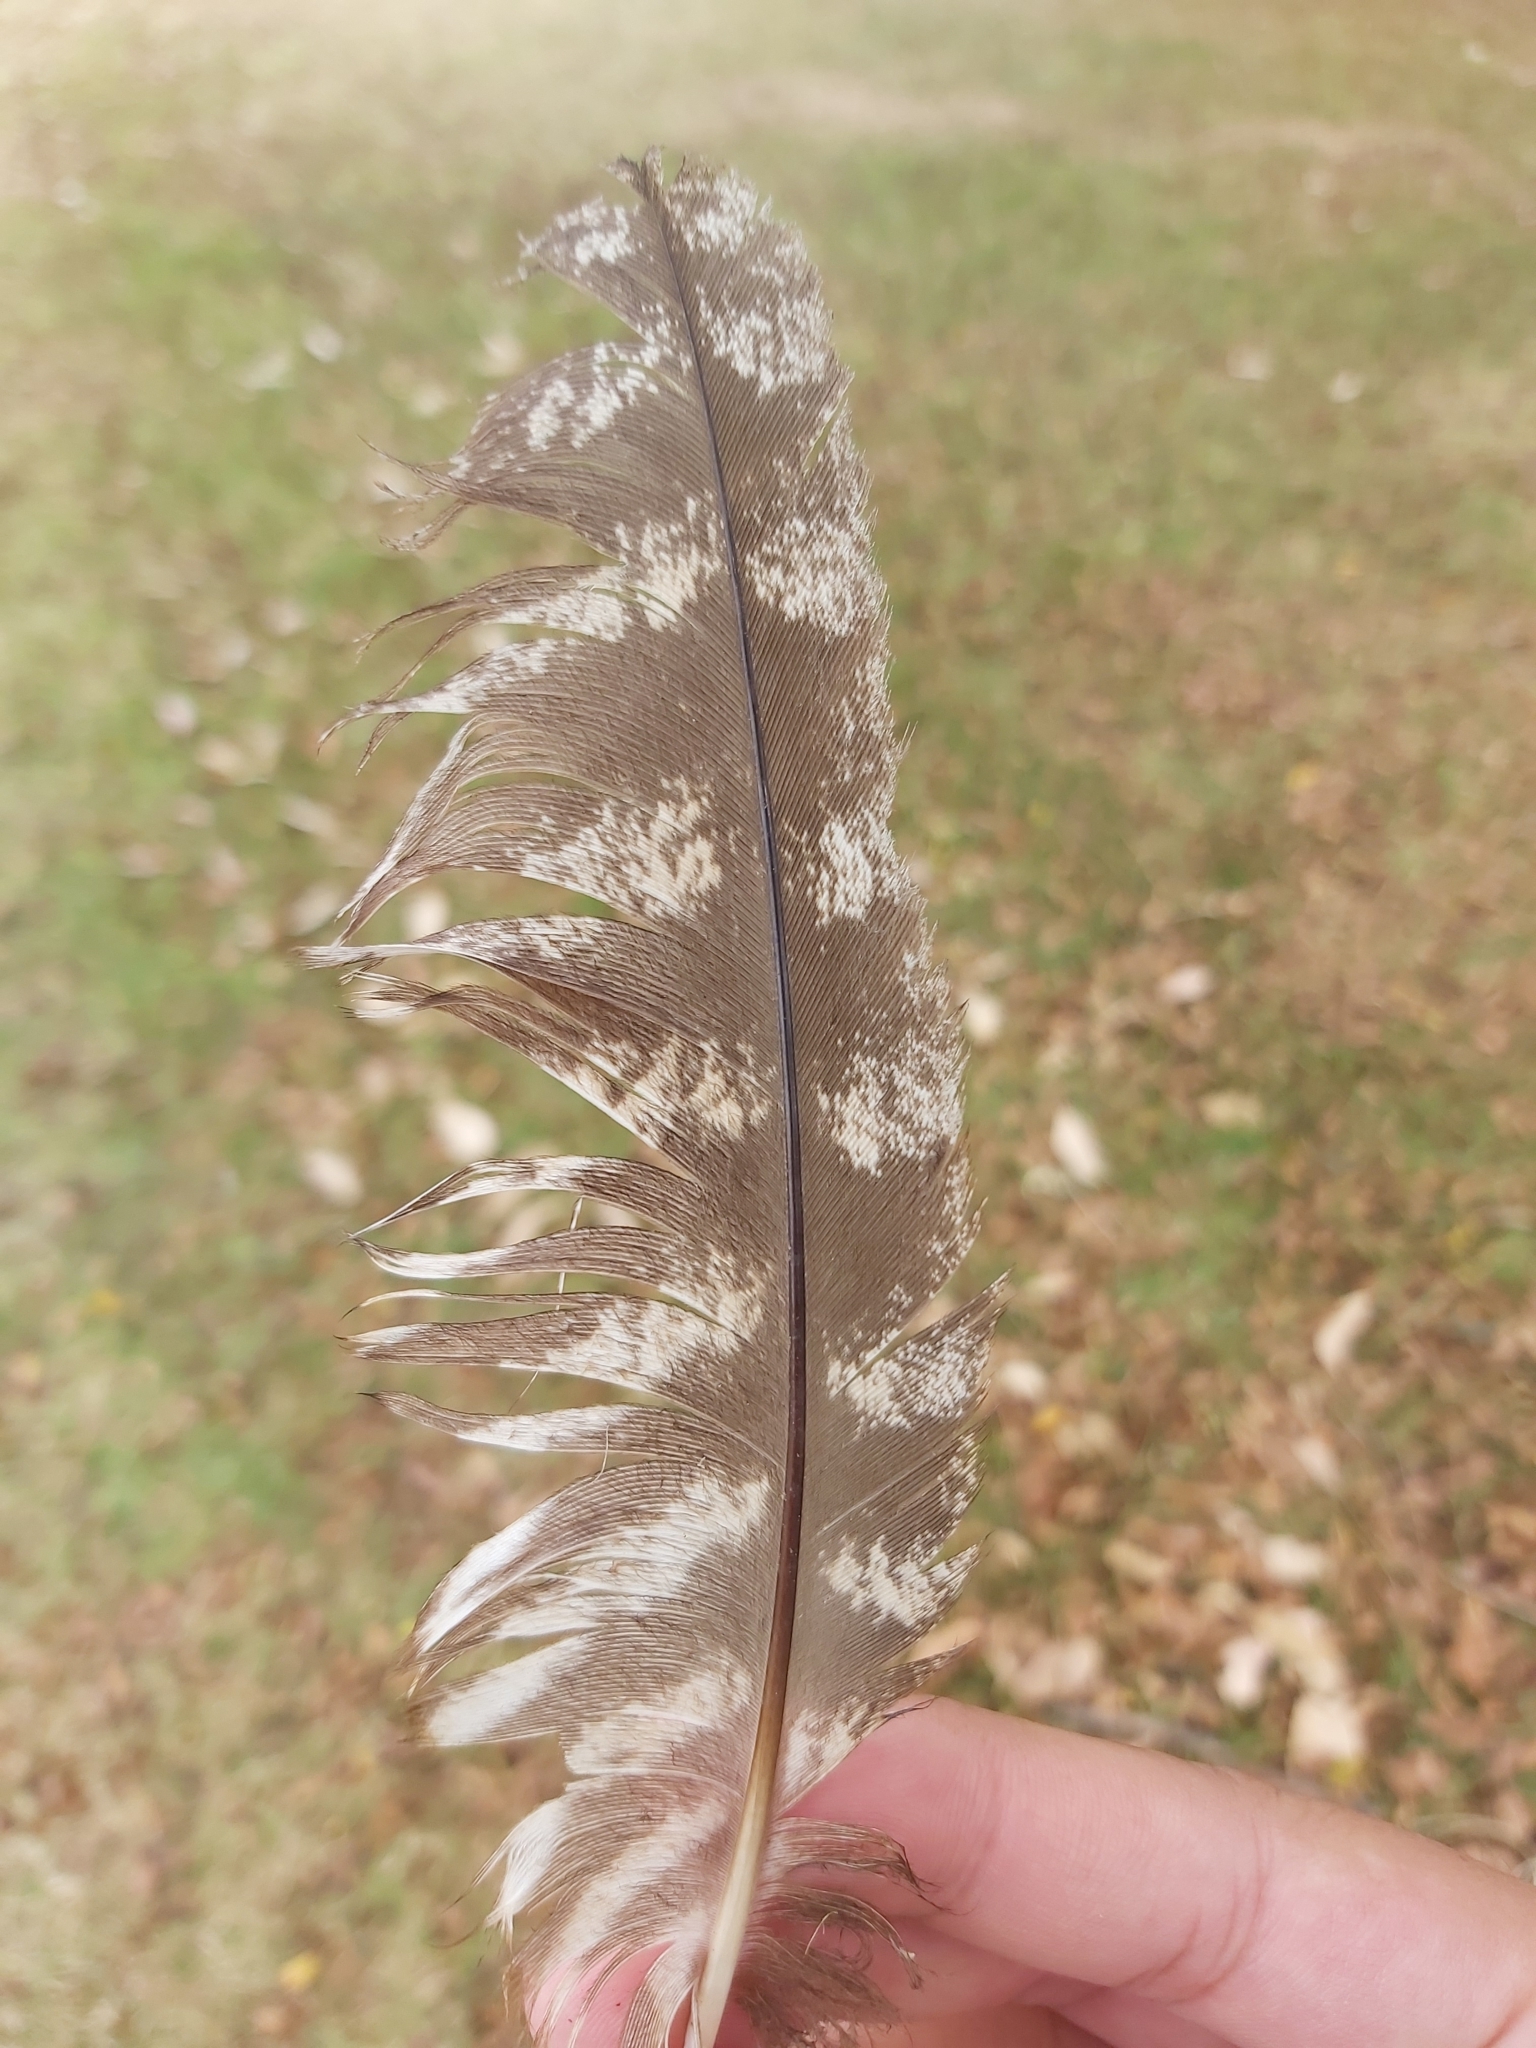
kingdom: Animalia
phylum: Chordata
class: Aves
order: Caprimulgiformes
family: Podargidae
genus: Podargus
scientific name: Podargus strigoides
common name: Tawny frogmouth
